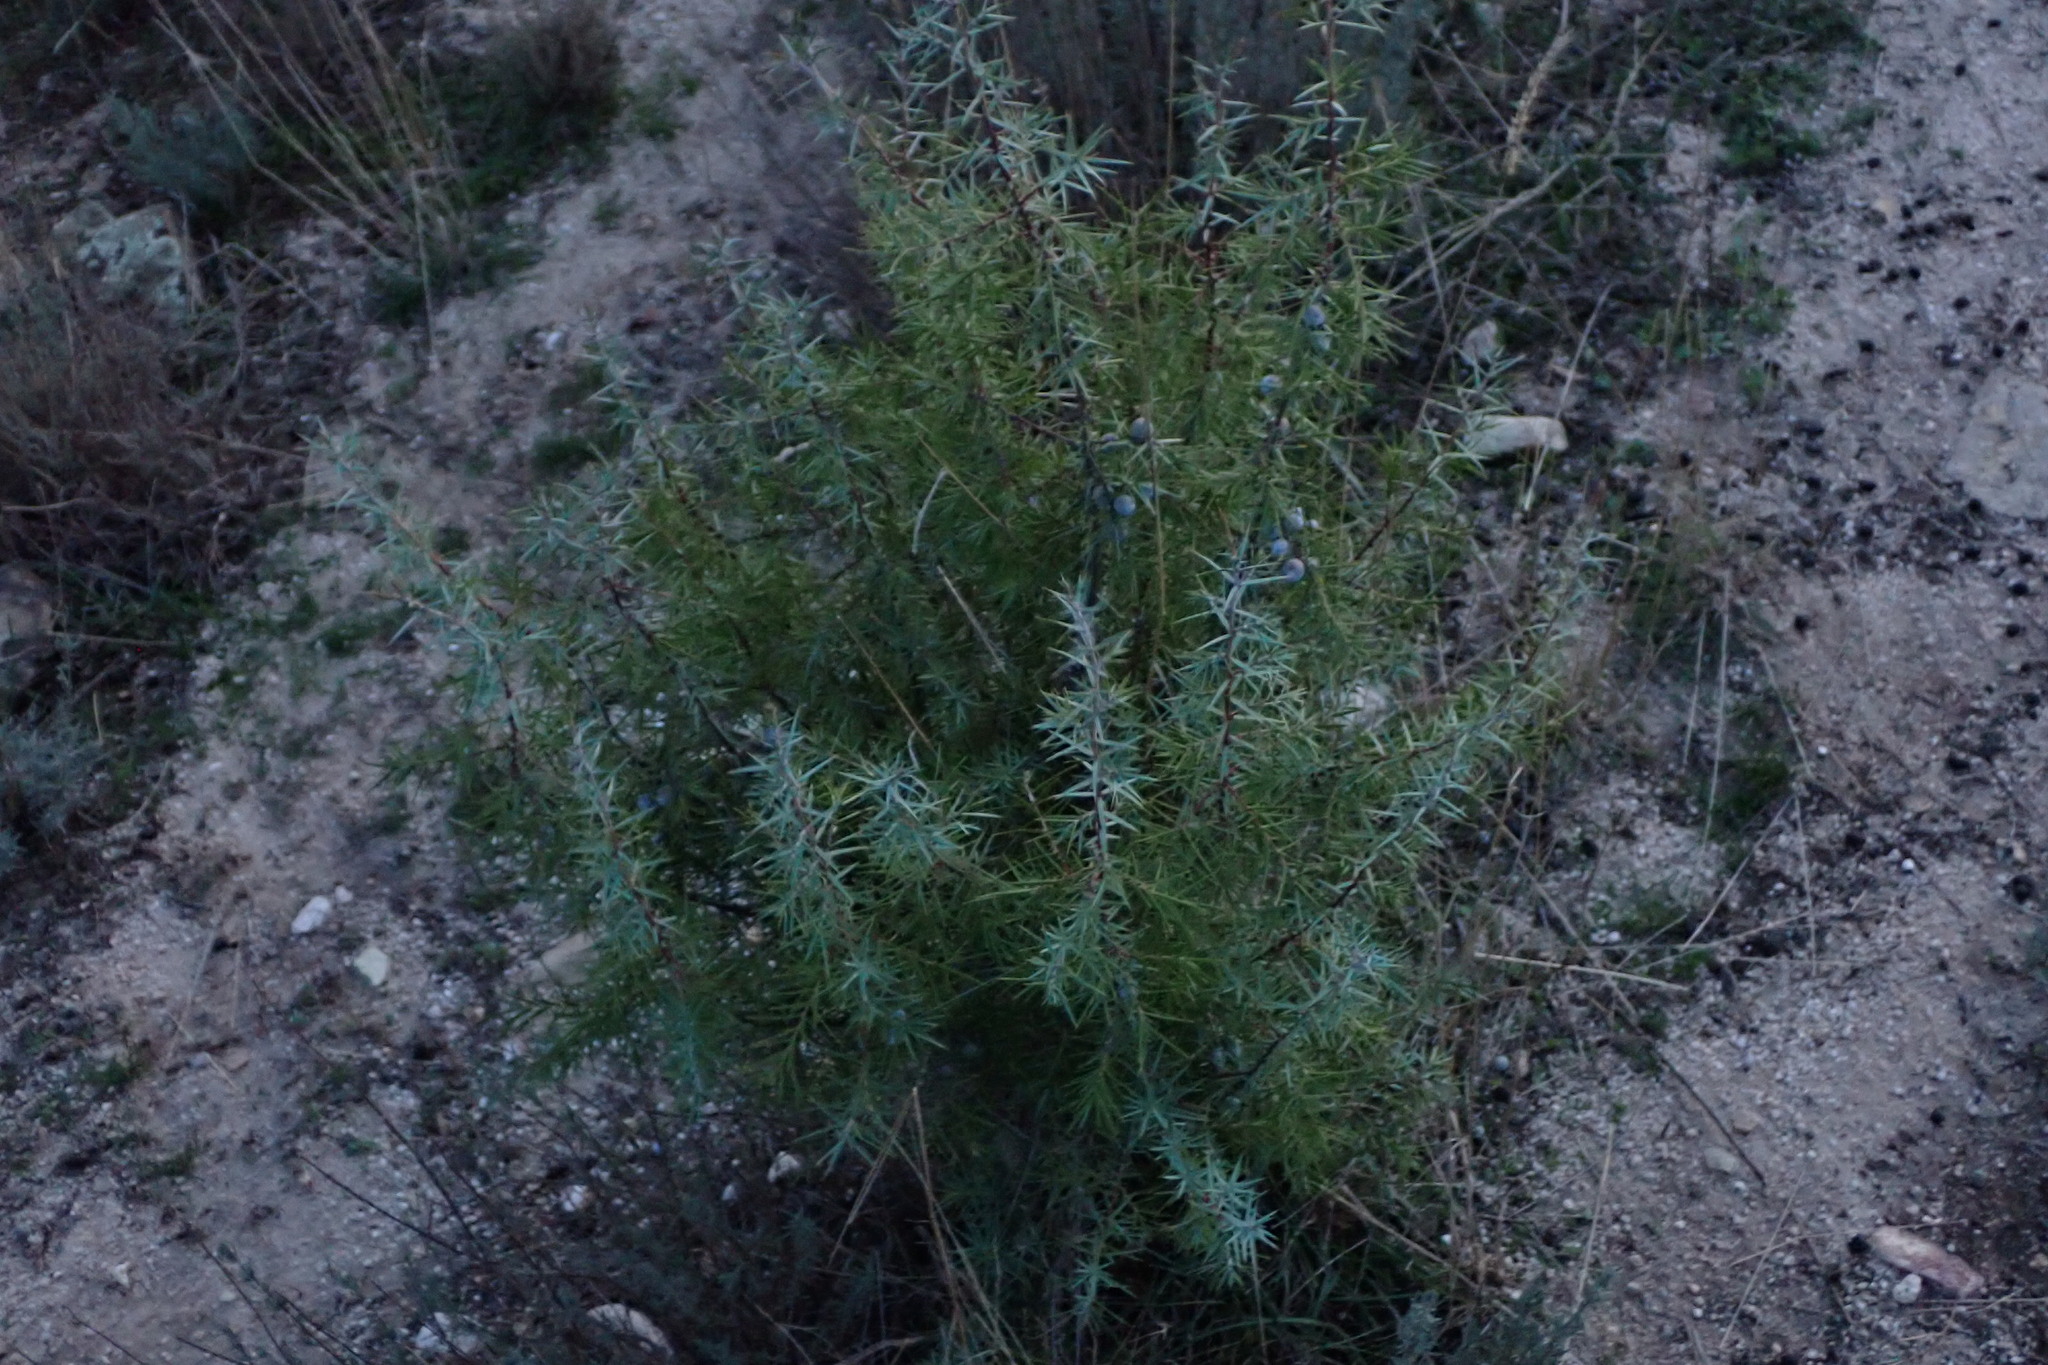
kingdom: Plantae
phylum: Tracheophyta
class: Pinopsida
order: Pinales
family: Cupressaceae
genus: Juniperus
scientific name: Juniperus oxycedrus
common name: Prickly juniper
